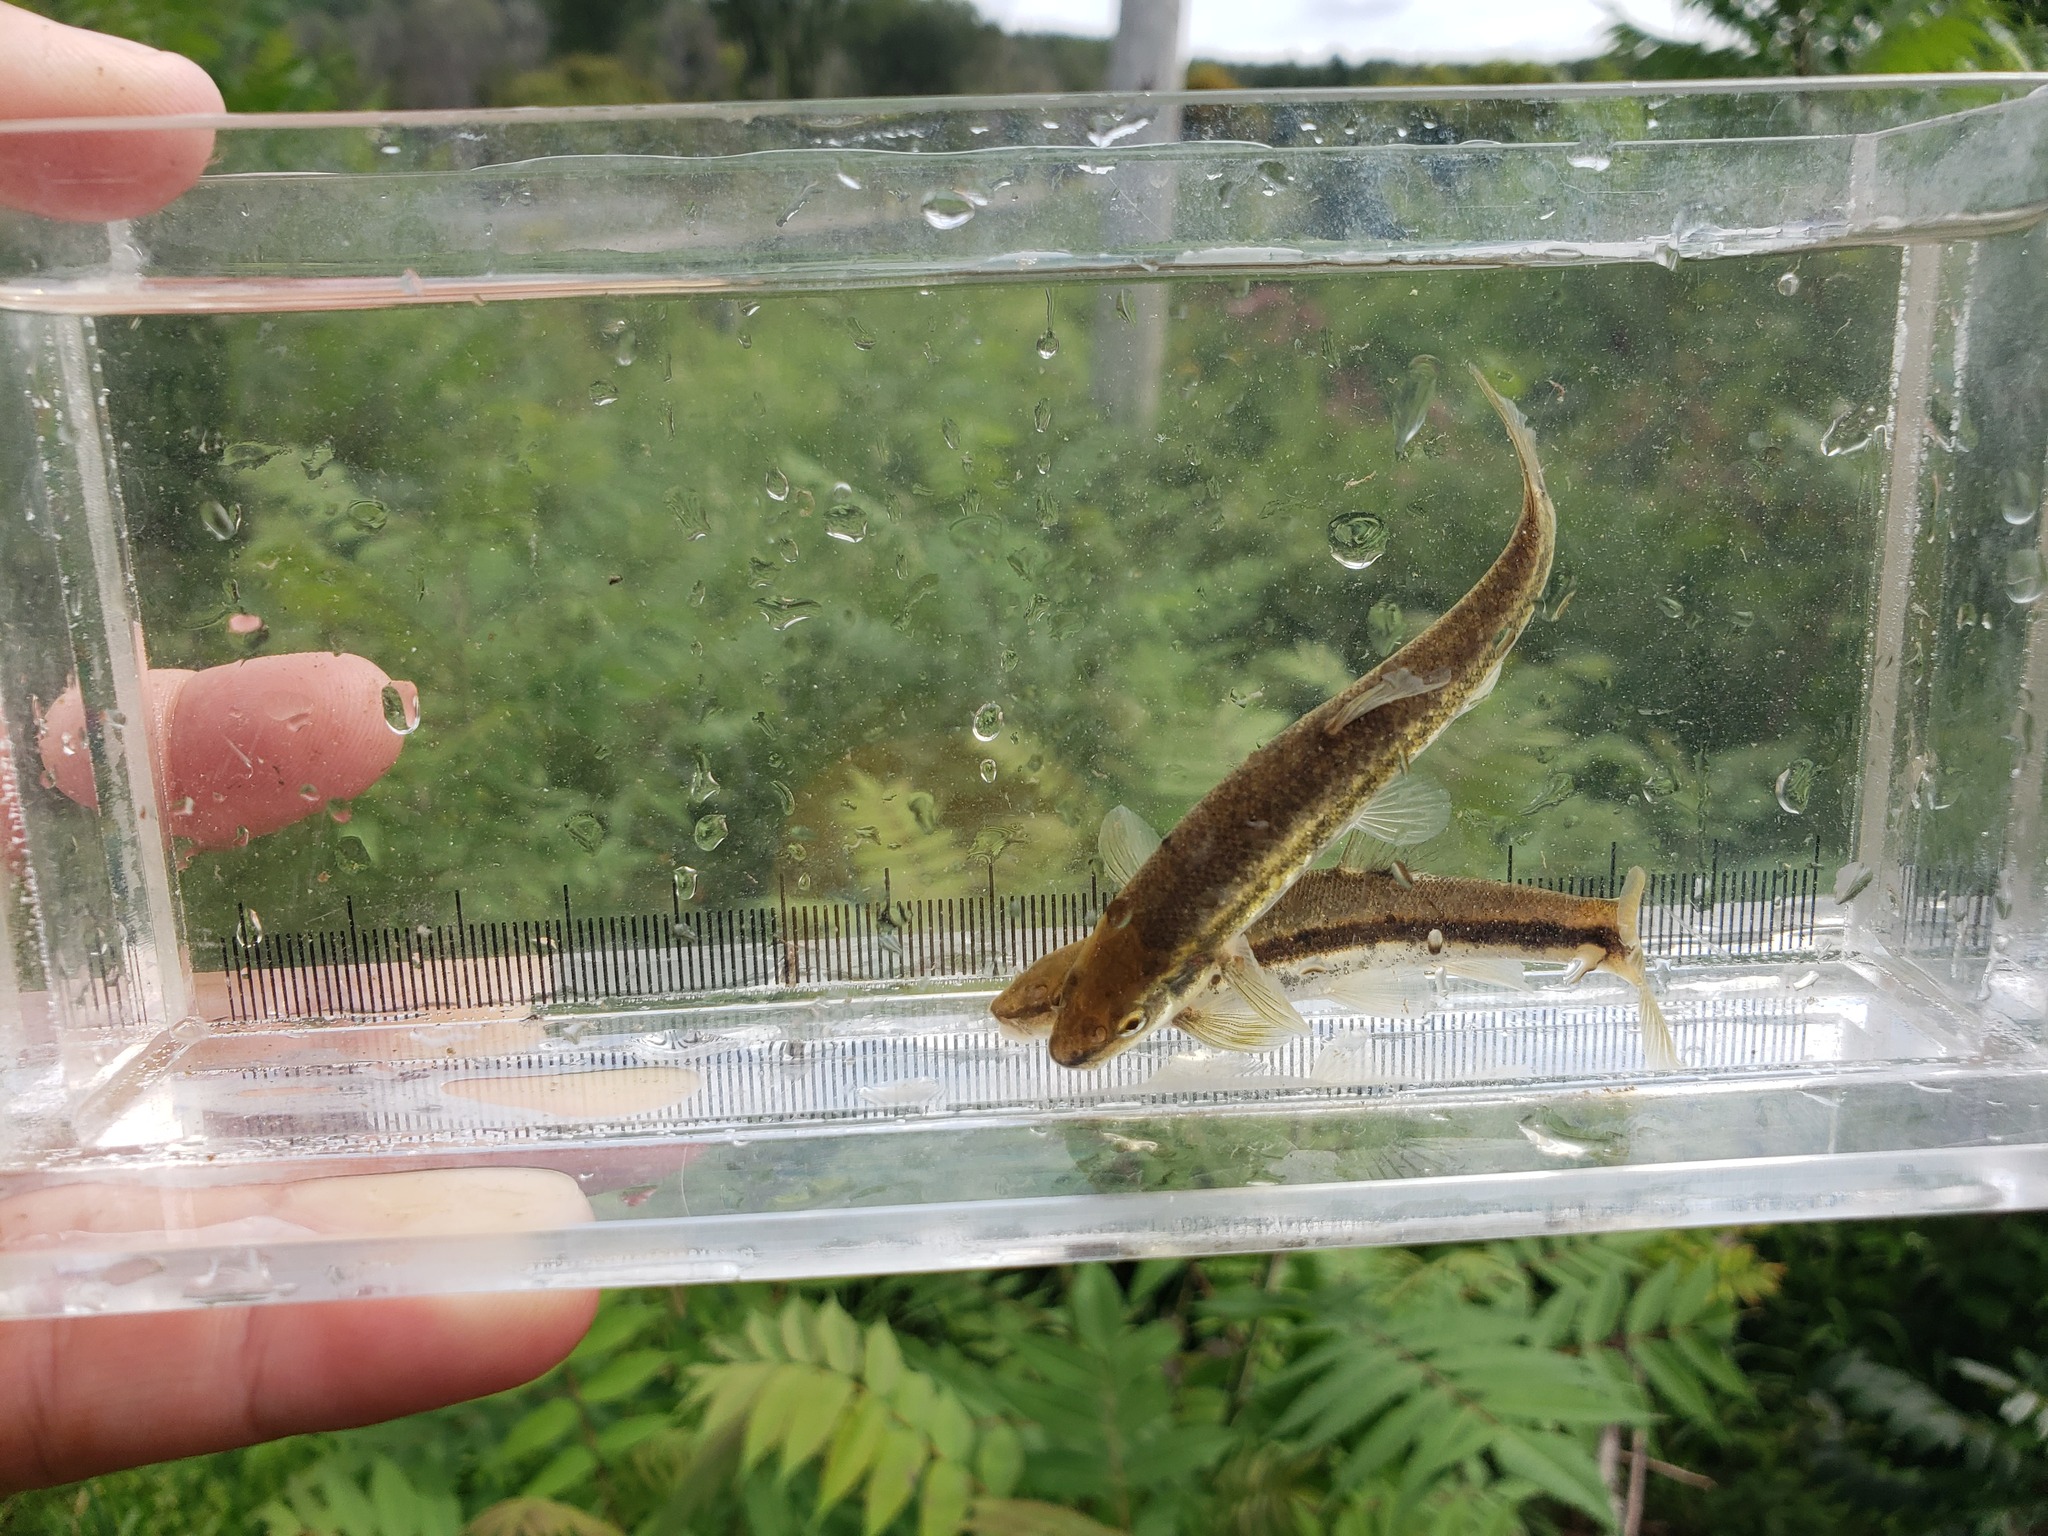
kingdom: Animalia
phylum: Chordata
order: Cypriniformes
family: Cyprinidae
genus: Rhinichthys
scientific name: Rhinichthys obtusus
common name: Western blacknose dace
